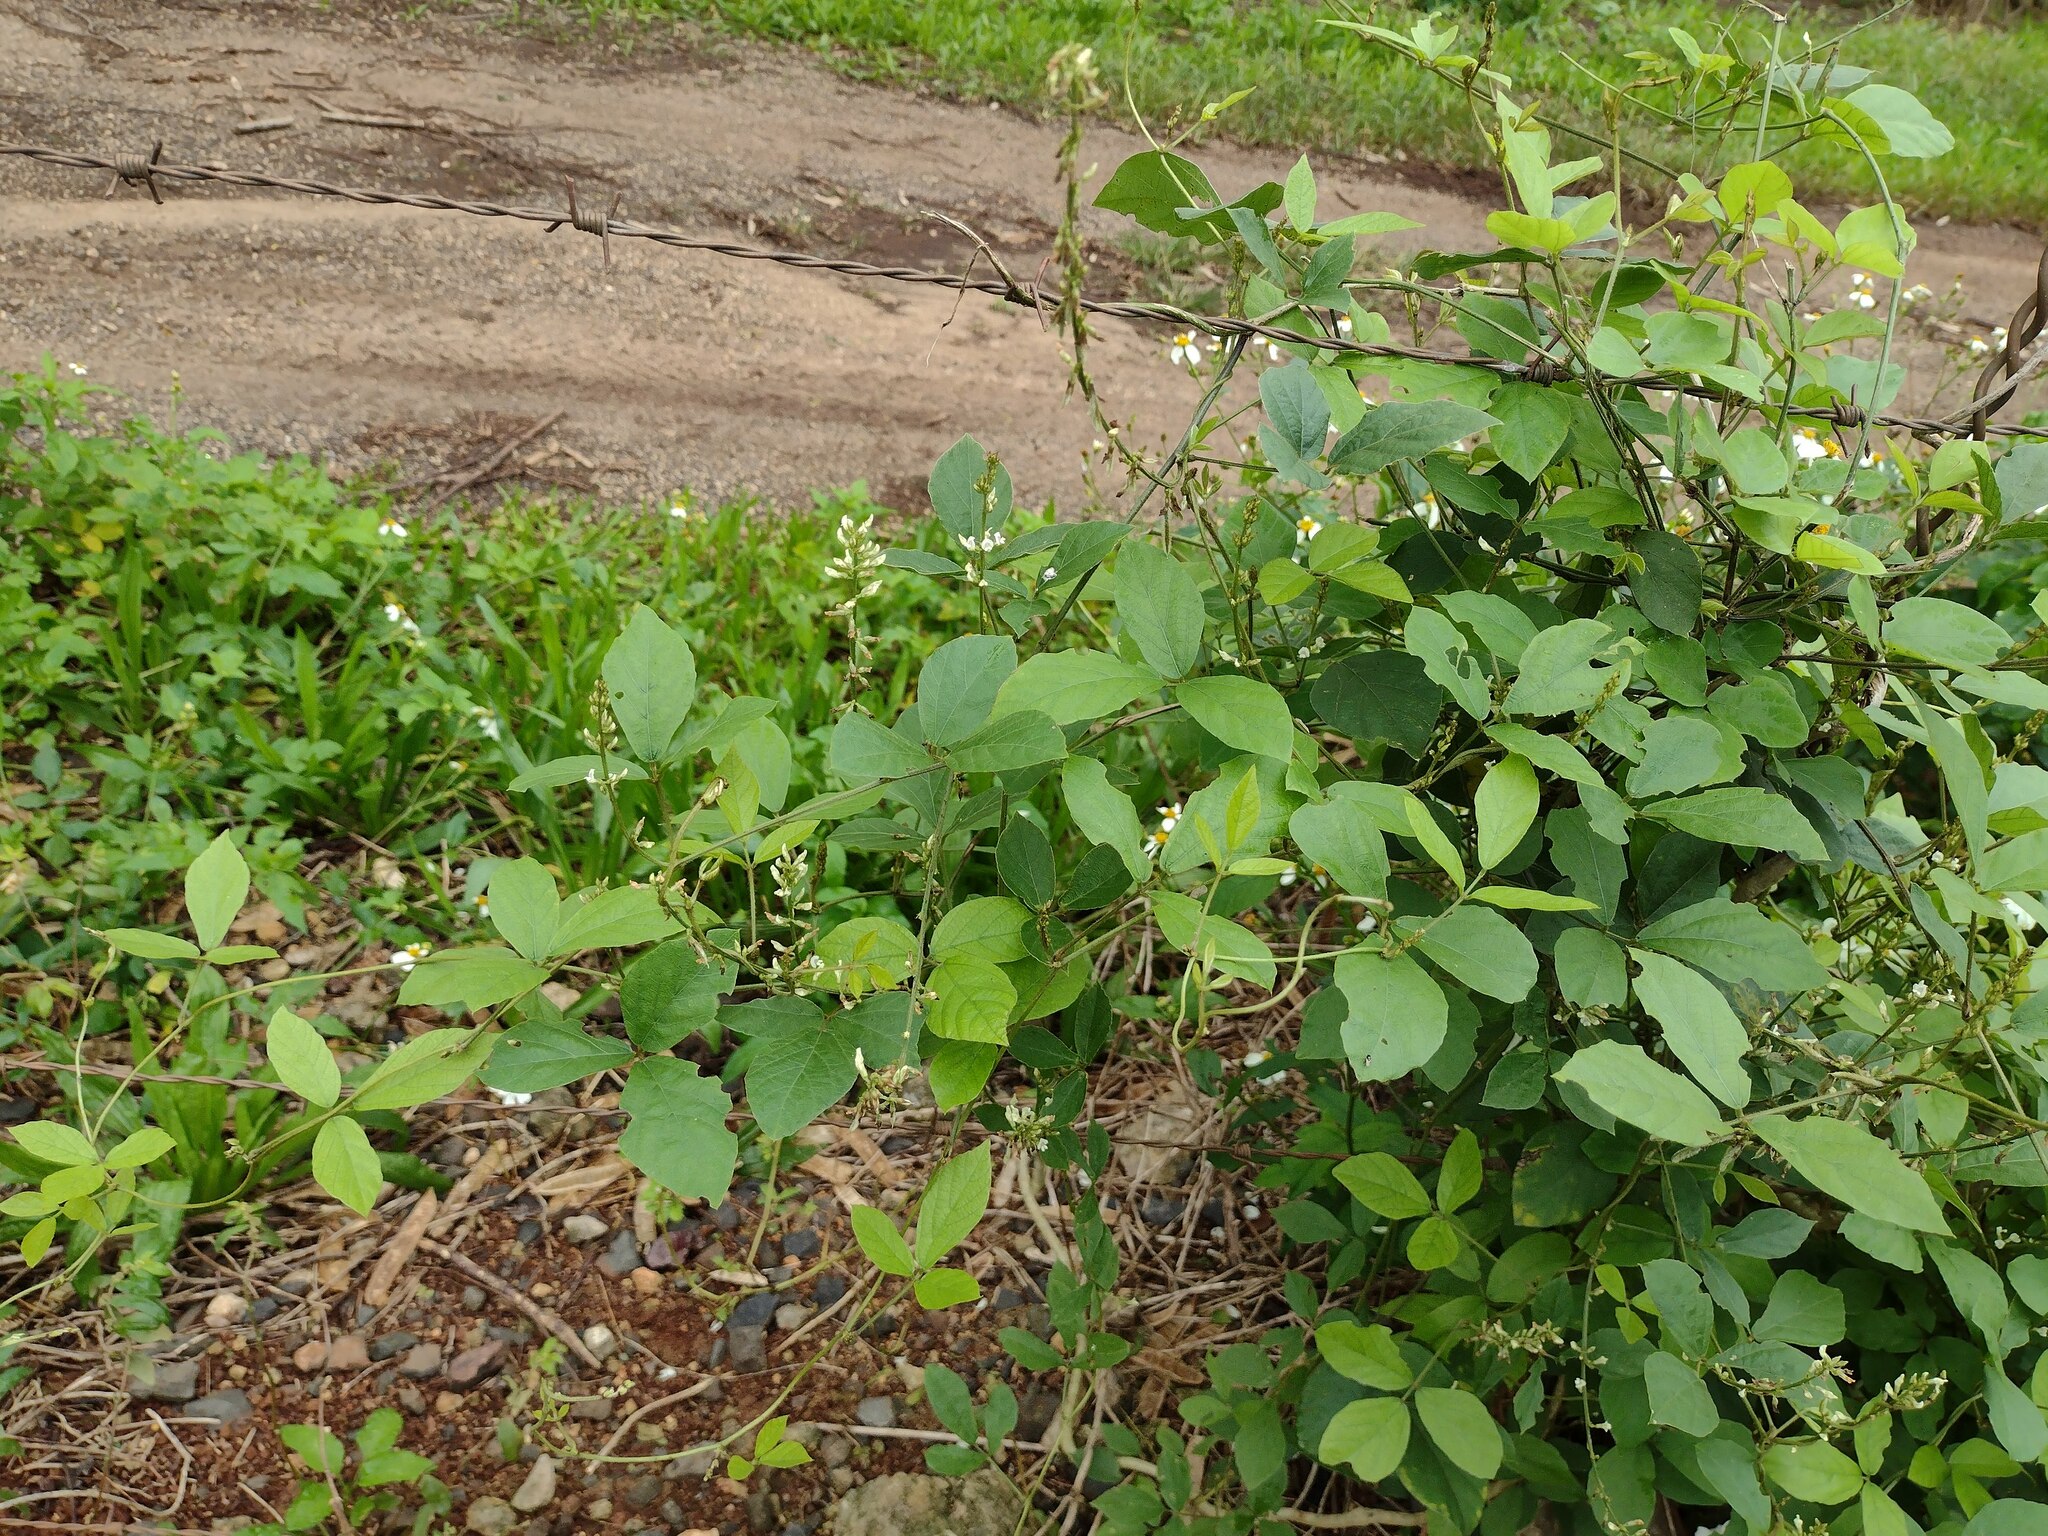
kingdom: Plantae
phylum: Tracheophyta
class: Magnoliopsida
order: Fabales
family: Fabaceae
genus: Neonotonia
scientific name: Neonotonia wightii
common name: Perennial soybean
